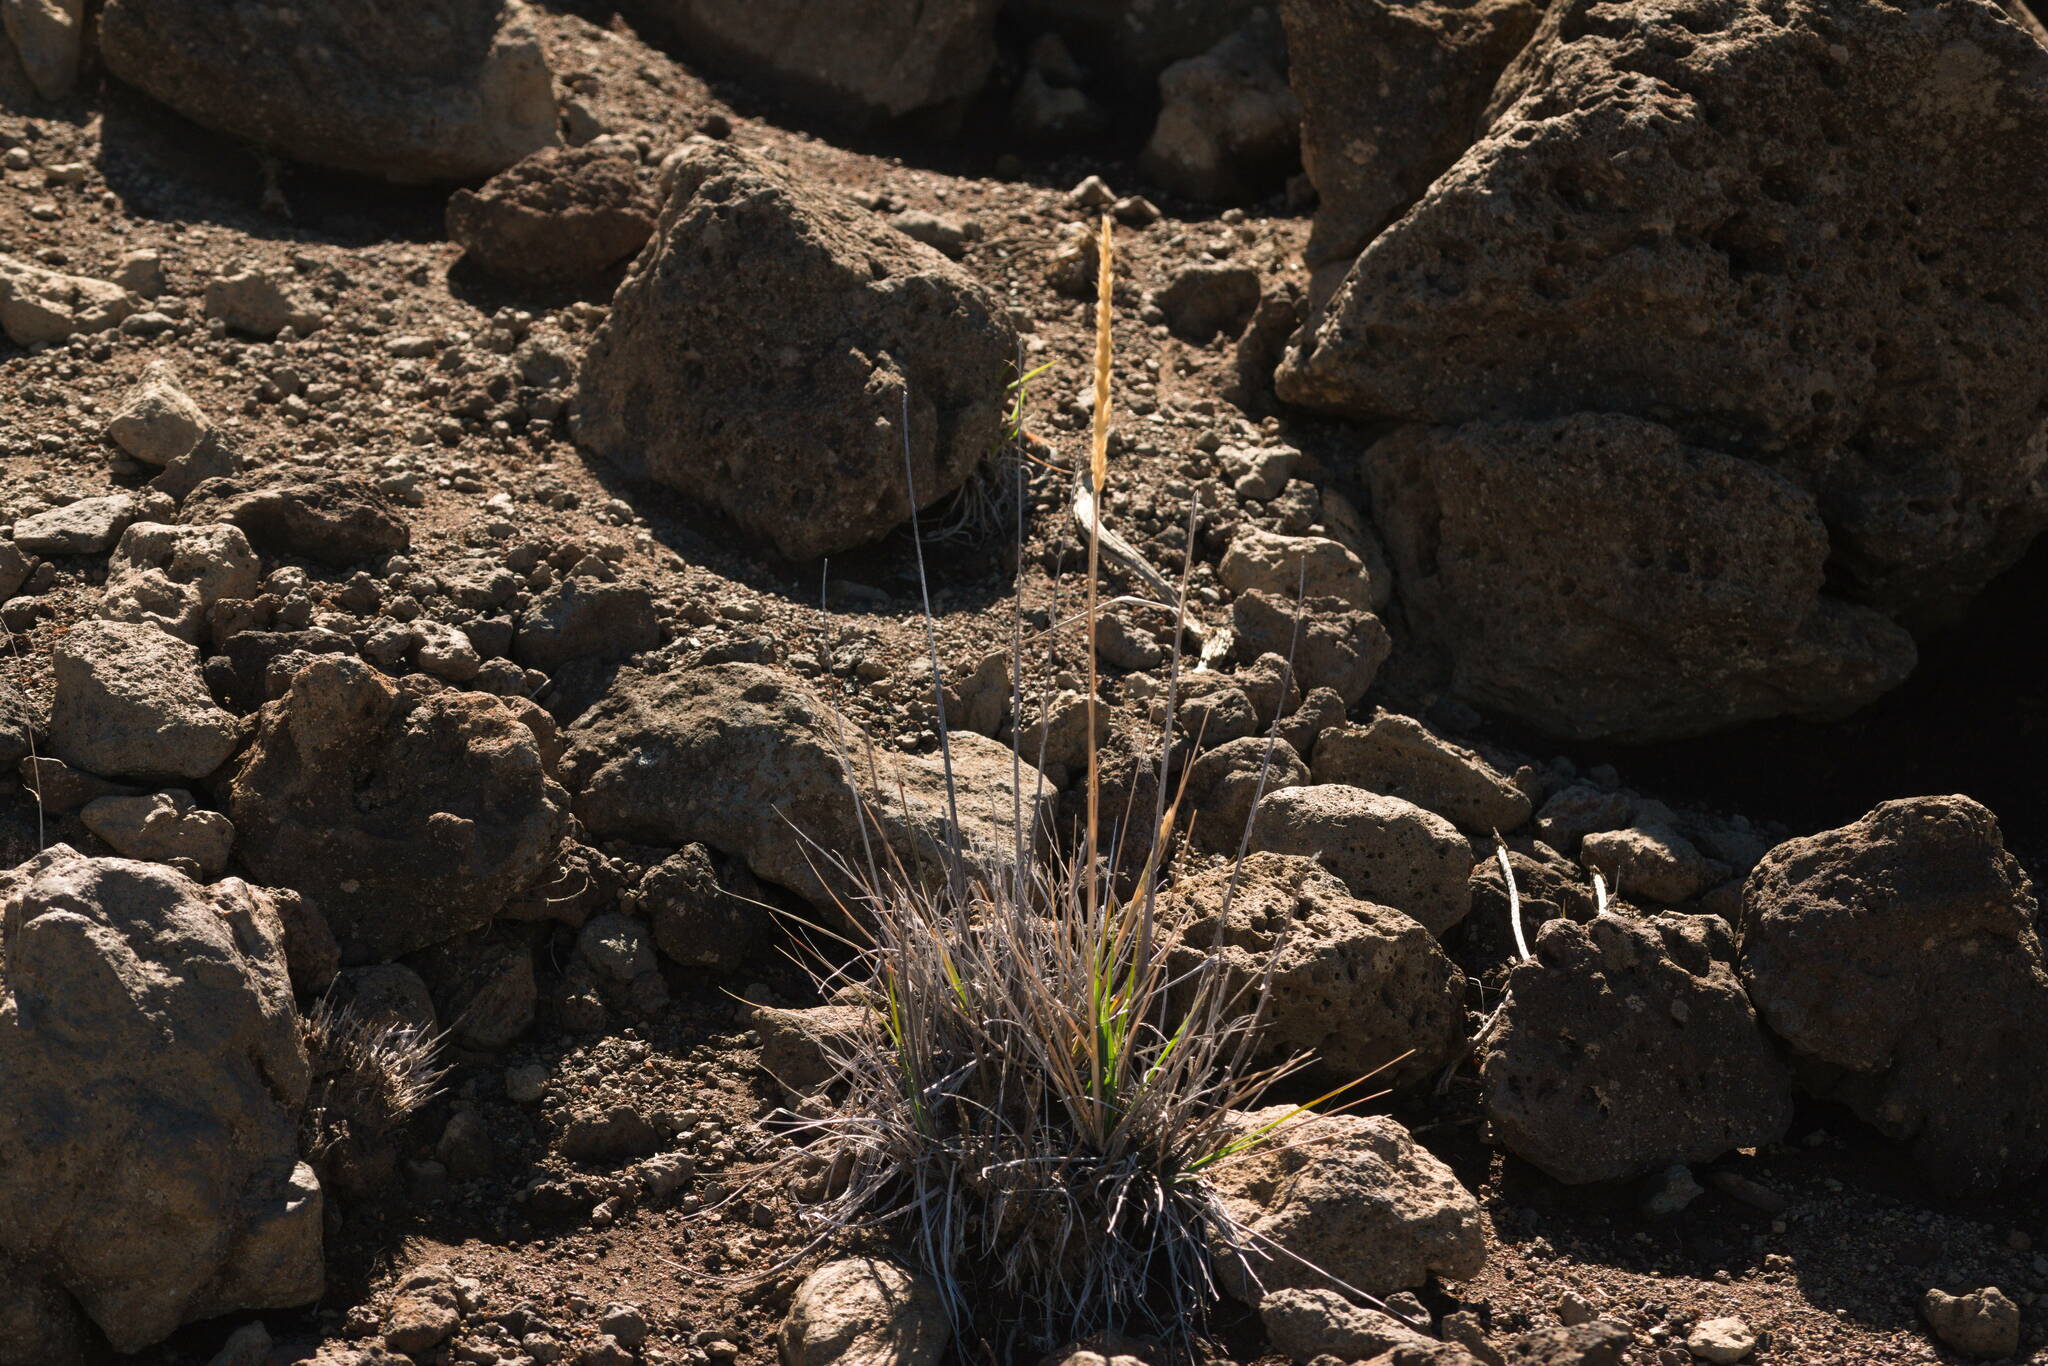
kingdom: Plantae
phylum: Tracheophyta
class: Liliopsida
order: Poales
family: Poaceae
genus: Trisetum
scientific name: Trisetum glomeratum
